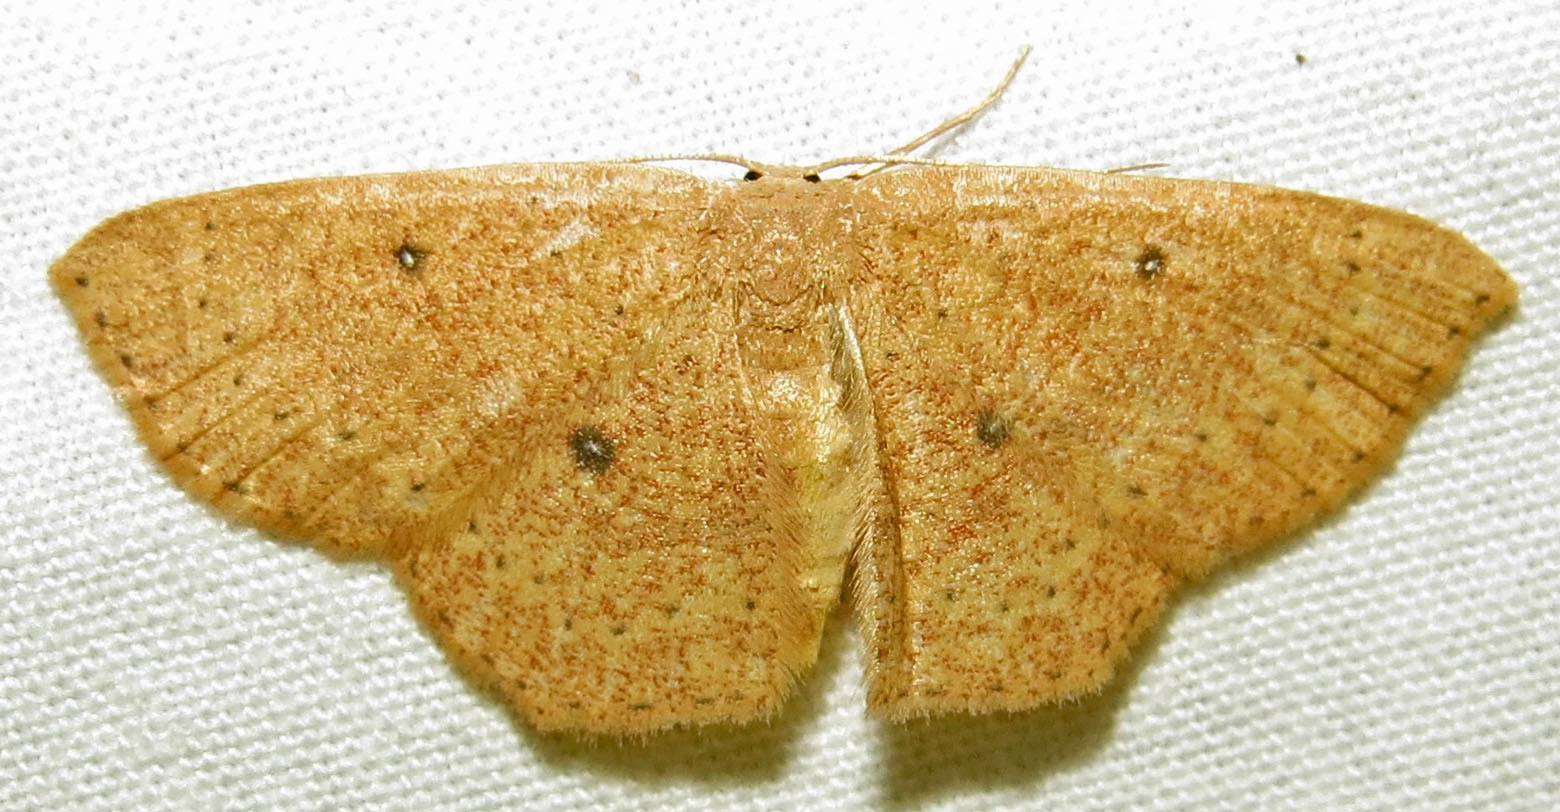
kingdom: Animalia
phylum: Arthropoda
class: Insecta
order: Lepidoptera
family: Geometridae
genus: Cyclophora
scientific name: Cyclophora packardi
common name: Packard's wave
